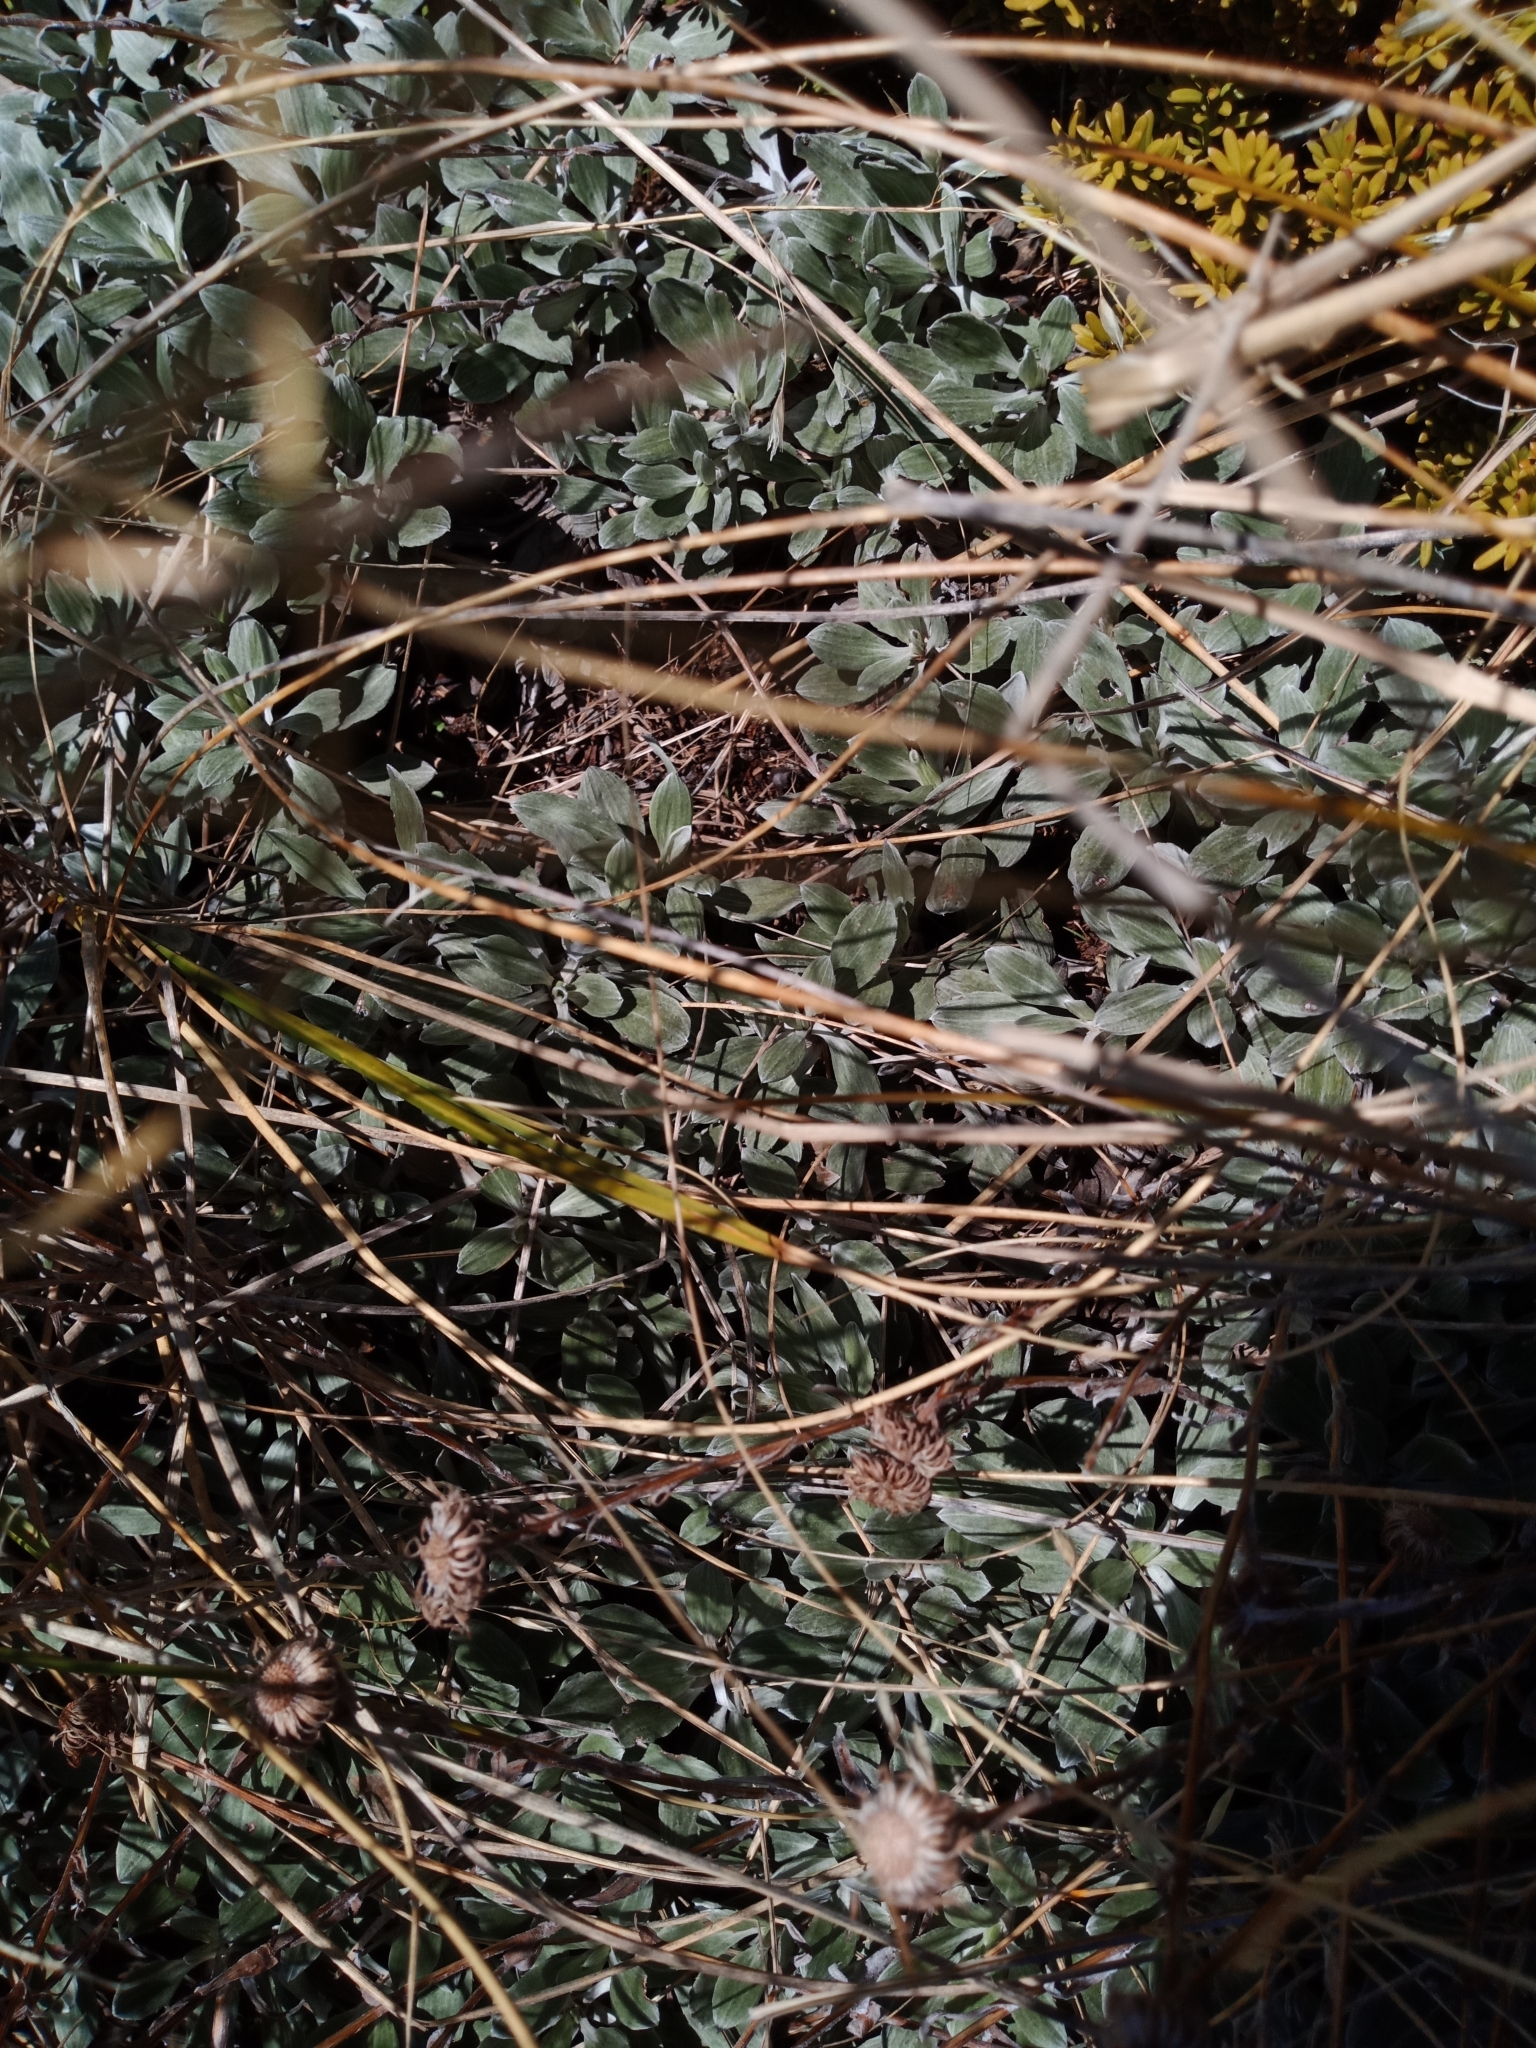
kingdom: Plantae
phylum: Tracheophyta
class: Magnoliopsida
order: Asterales
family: Asteraceae
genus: Celmisia
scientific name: Celmisia discolor
